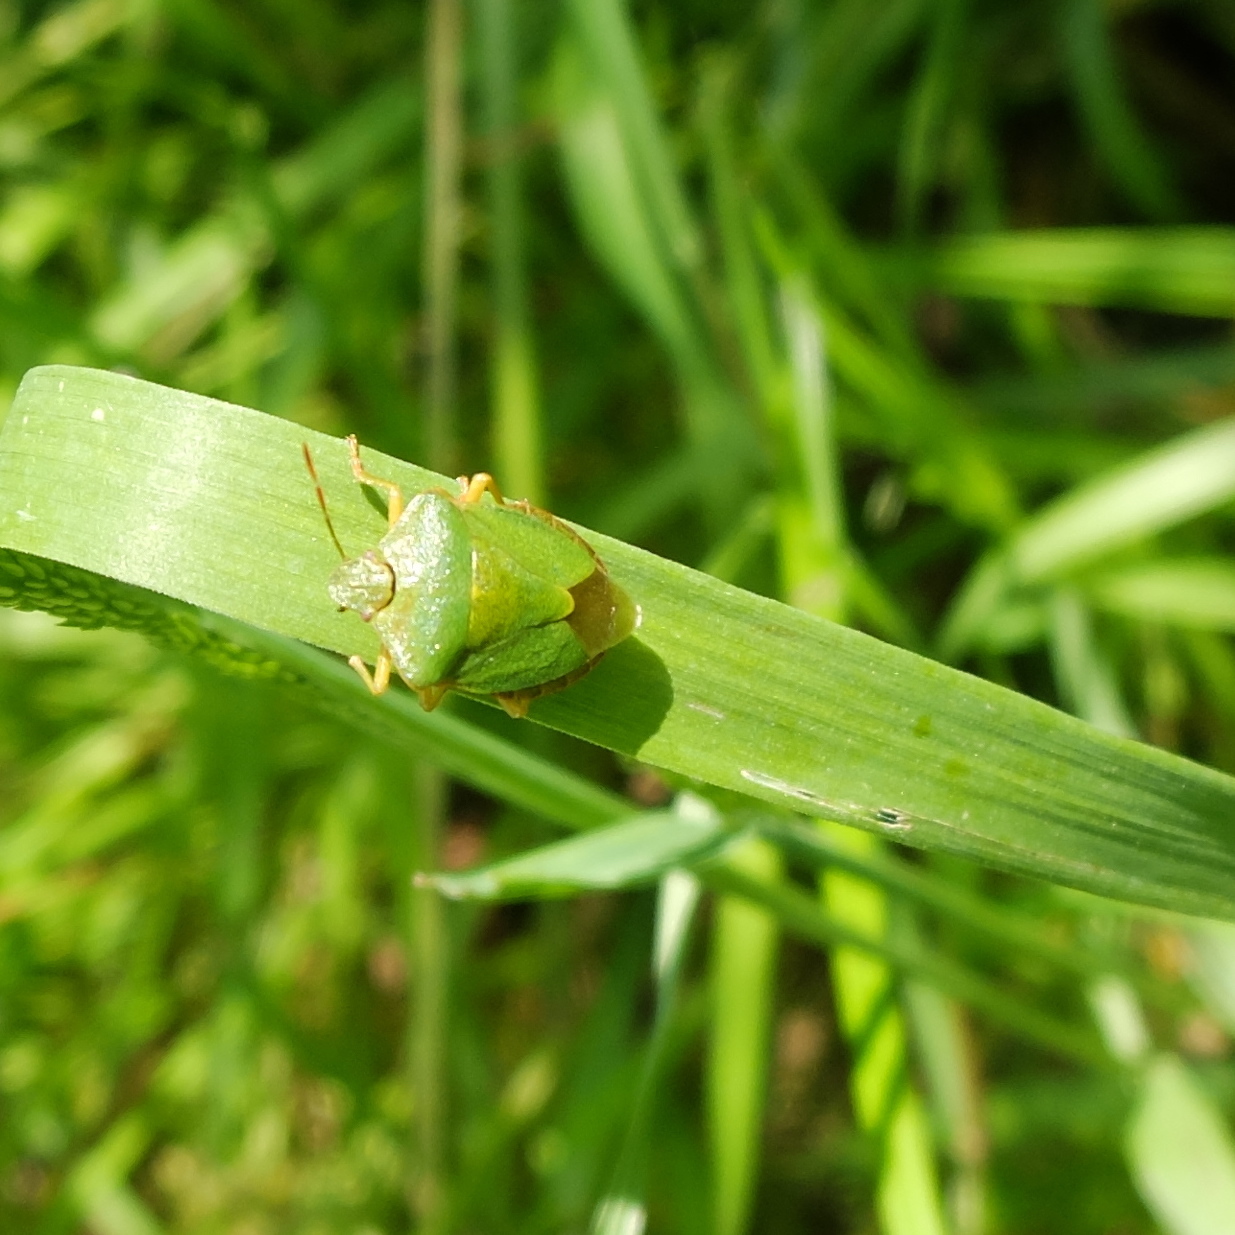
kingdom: Animalia
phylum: Arthropoda
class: Insecta
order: Hemiptera
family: Pentatomidae
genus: Palomena
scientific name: Palomena prasina
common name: Green shieldbug
